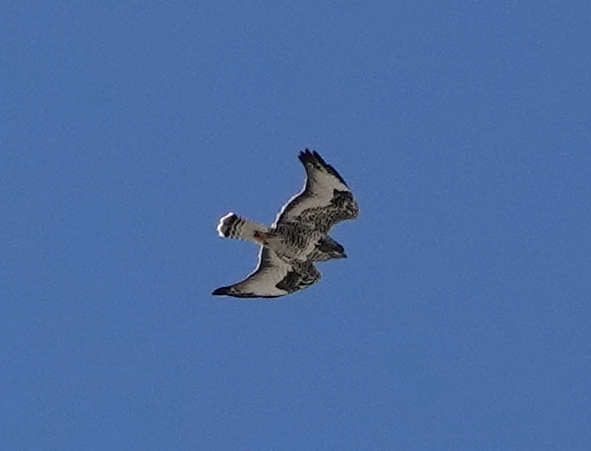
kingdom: Animalia
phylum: Chordata
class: Aves
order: Accipitriformes
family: Accipitridae
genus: Buteo
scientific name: Buteo lagopus
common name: Rough-legged buzzard
